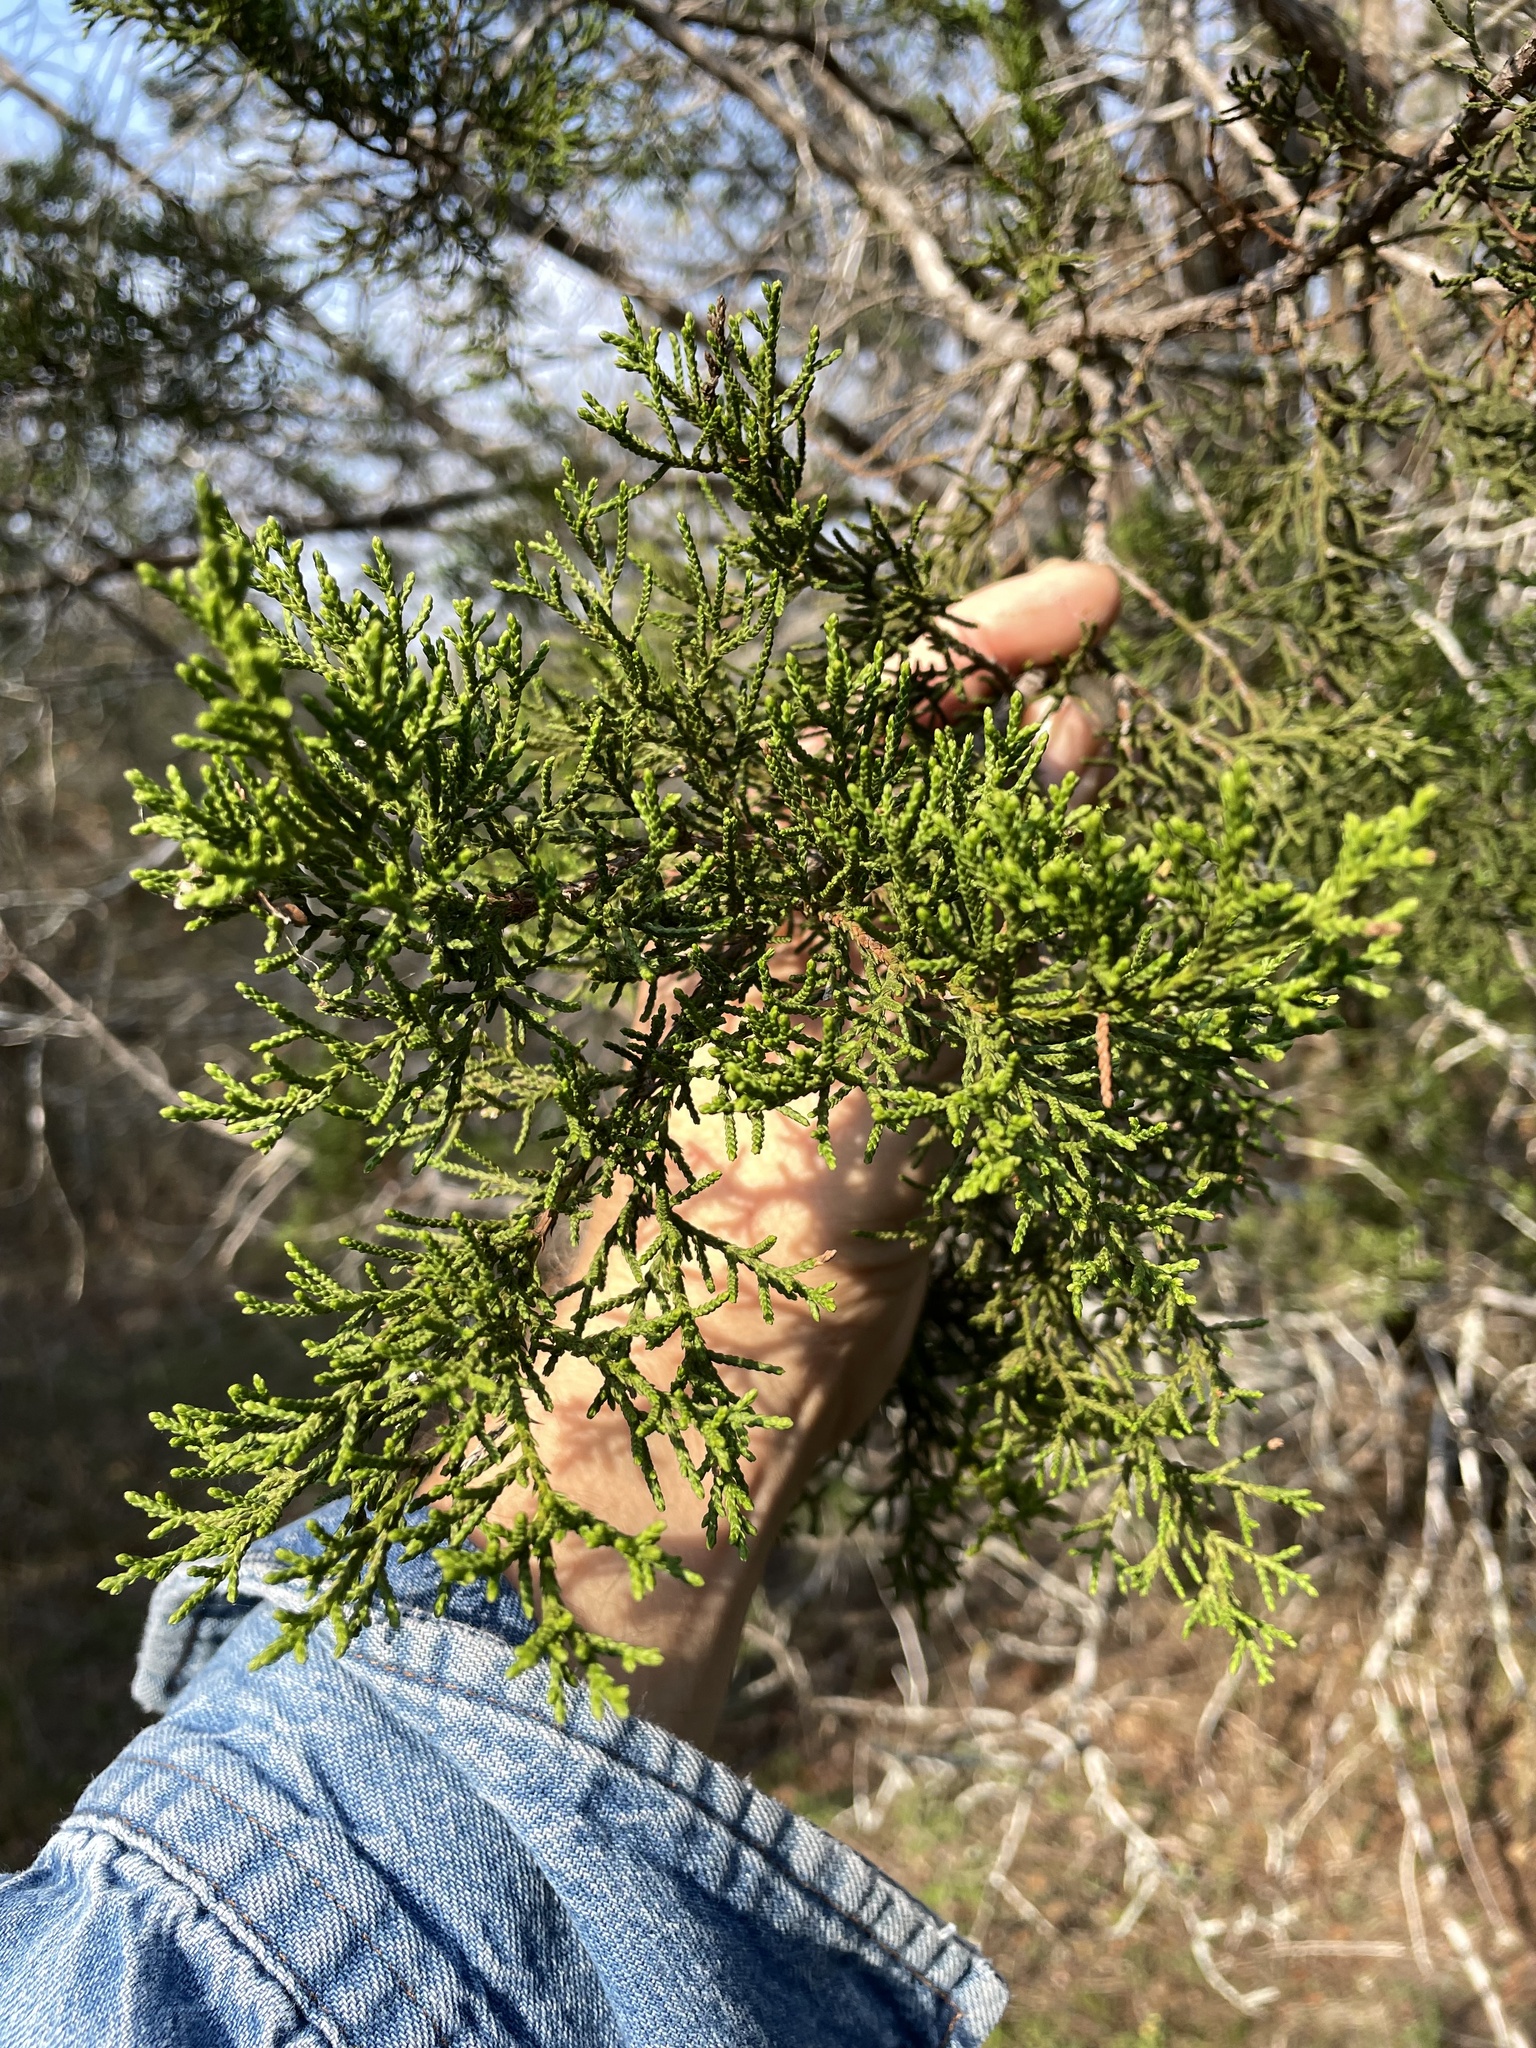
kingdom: Plantae
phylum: Tracheophyta
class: Pinopsida
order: Pinales
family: Cupressaceae
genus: Juniperus
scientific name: Juniperus ashei
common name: Mexican juniper
